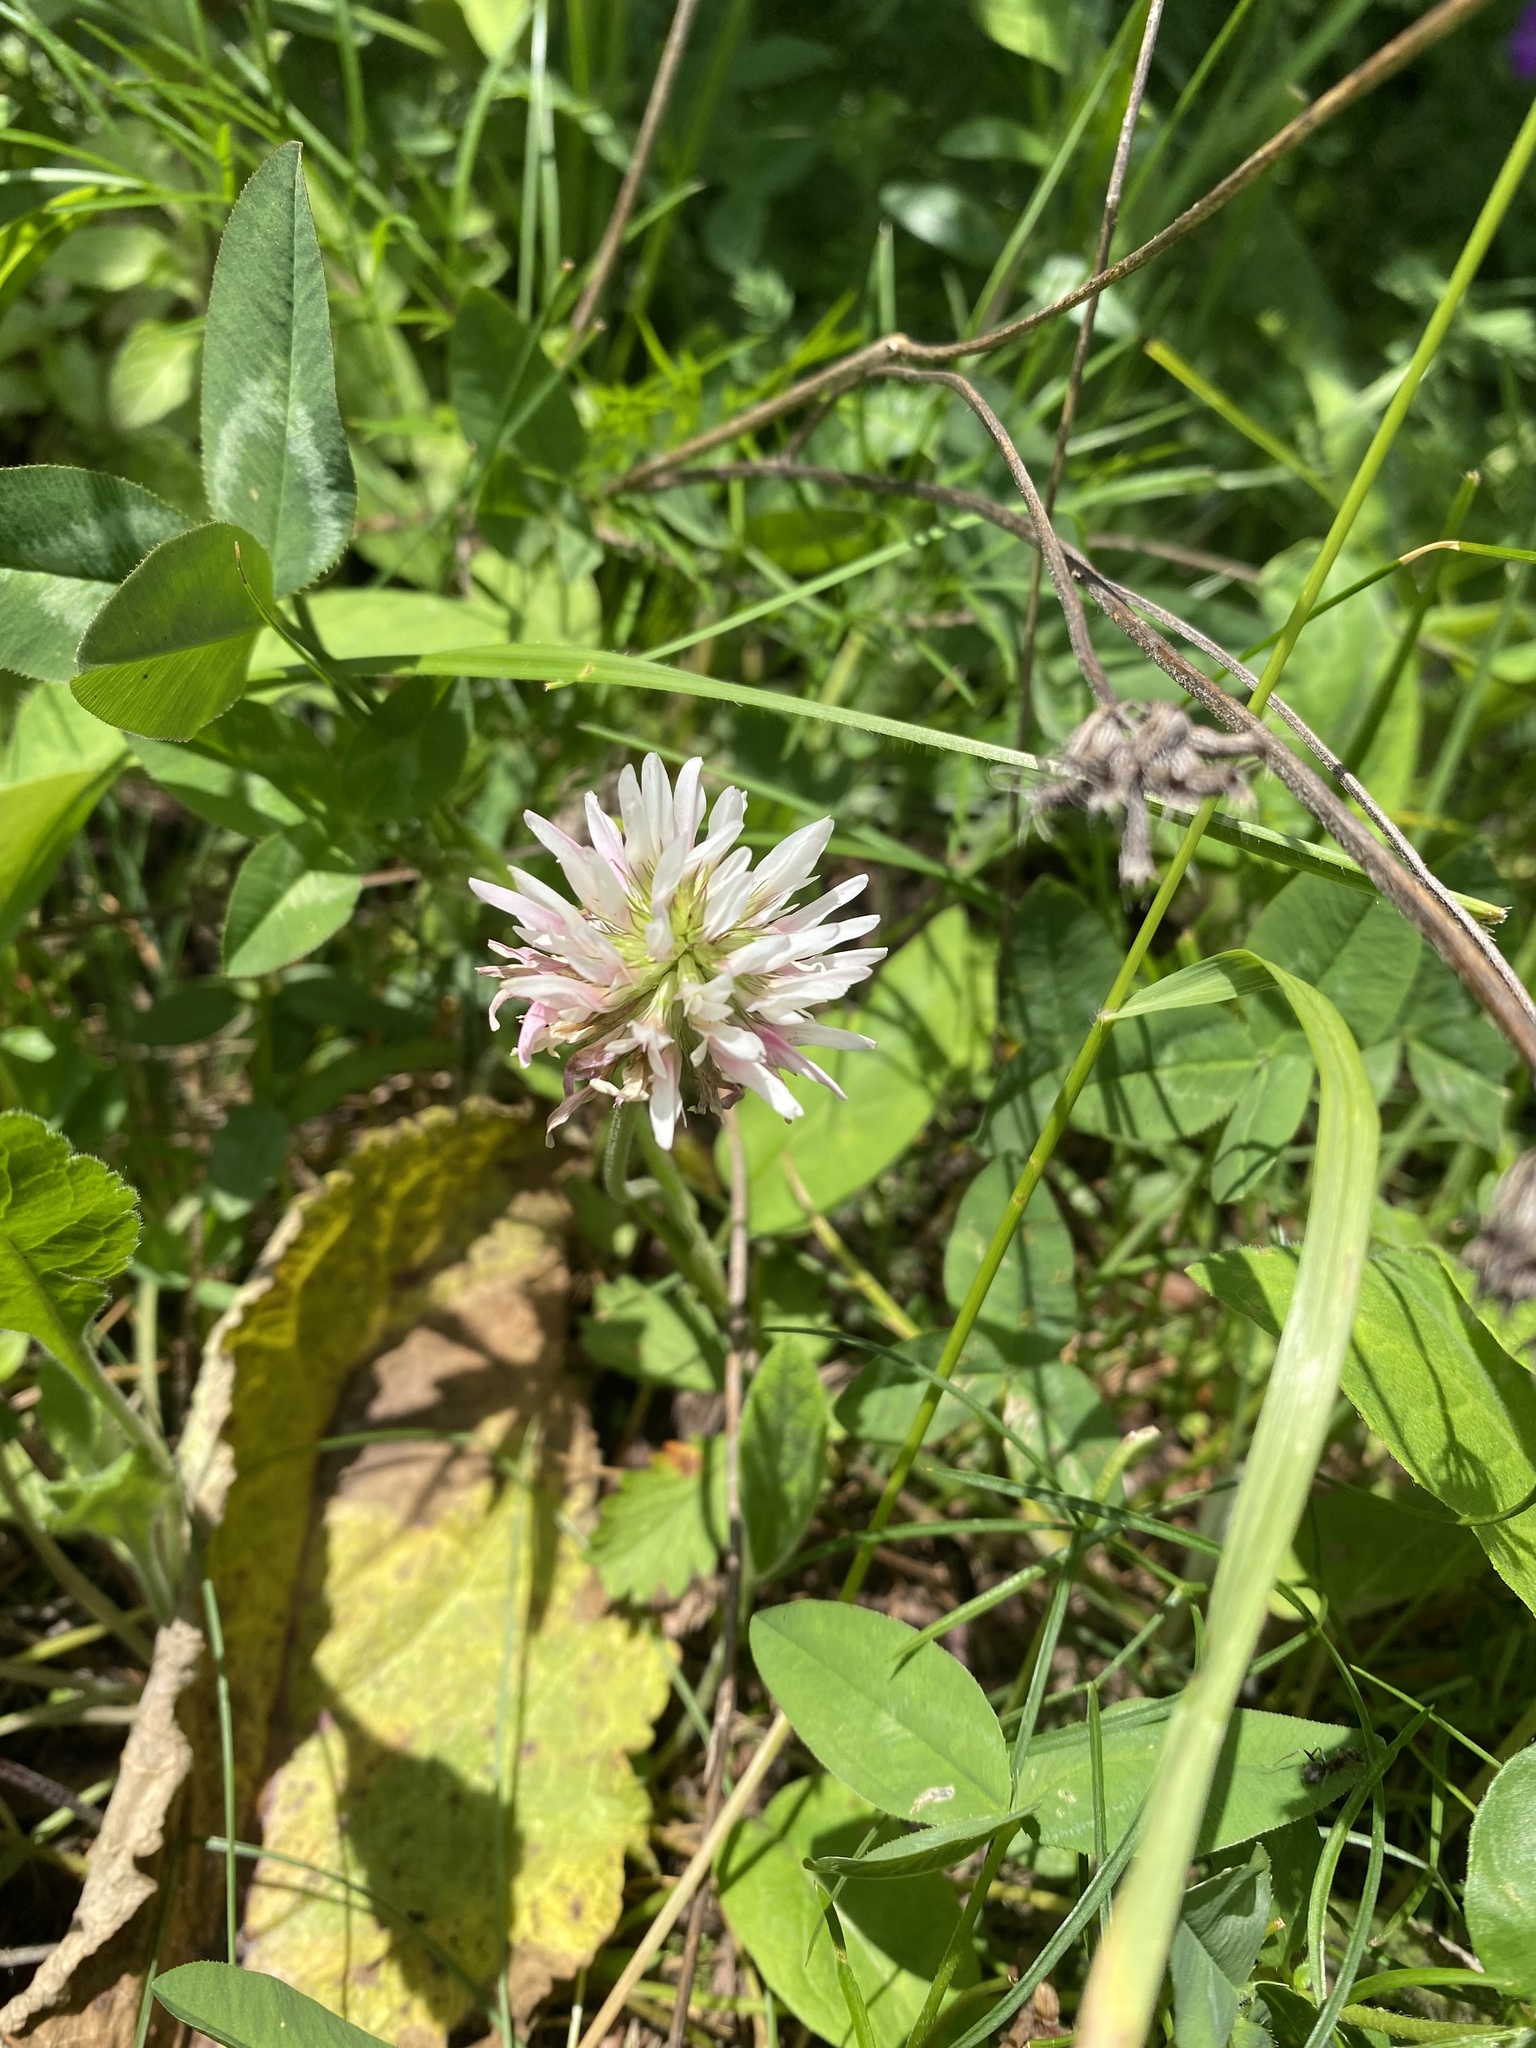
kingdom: Plantae
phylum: Tracheophyta
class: Magnoliopsida
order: Fabales
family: Fabaceae
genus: Trifolium
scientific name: Trifolium ambiguum
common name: Kura clover
